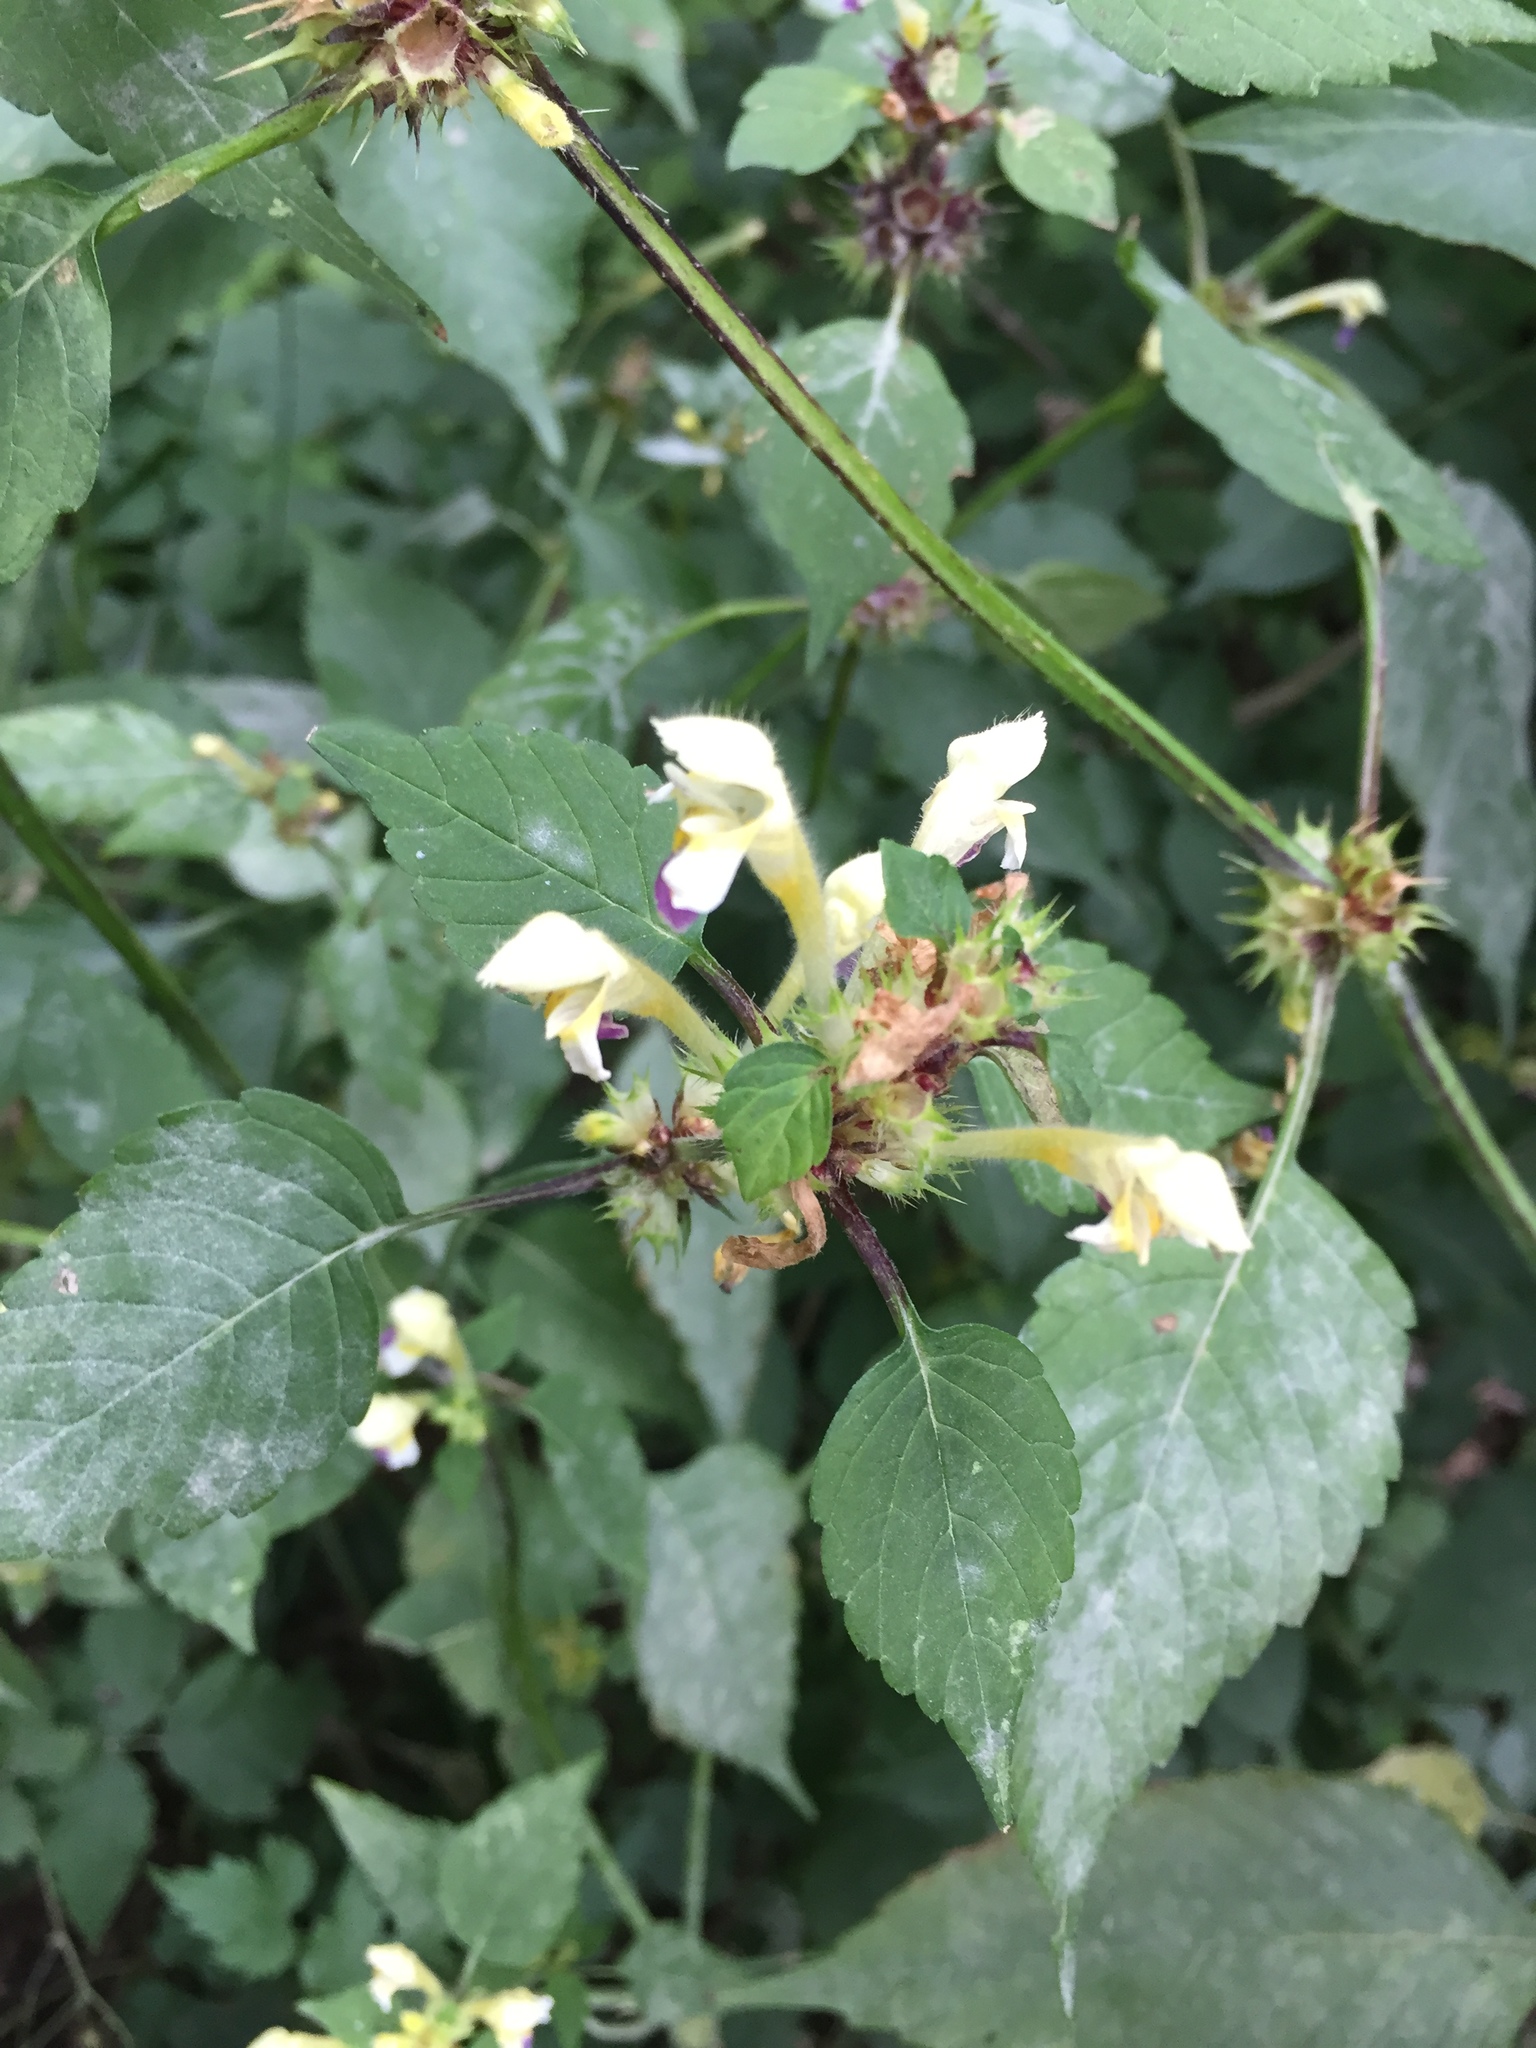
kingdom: Plantae
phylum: Tracheophyta
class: Magnoliopsida
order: Lamiales
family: Lamiaceae
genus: Galeopsis
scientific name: Galeopsis speciosa
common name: Large-flowered hemp-nettle
